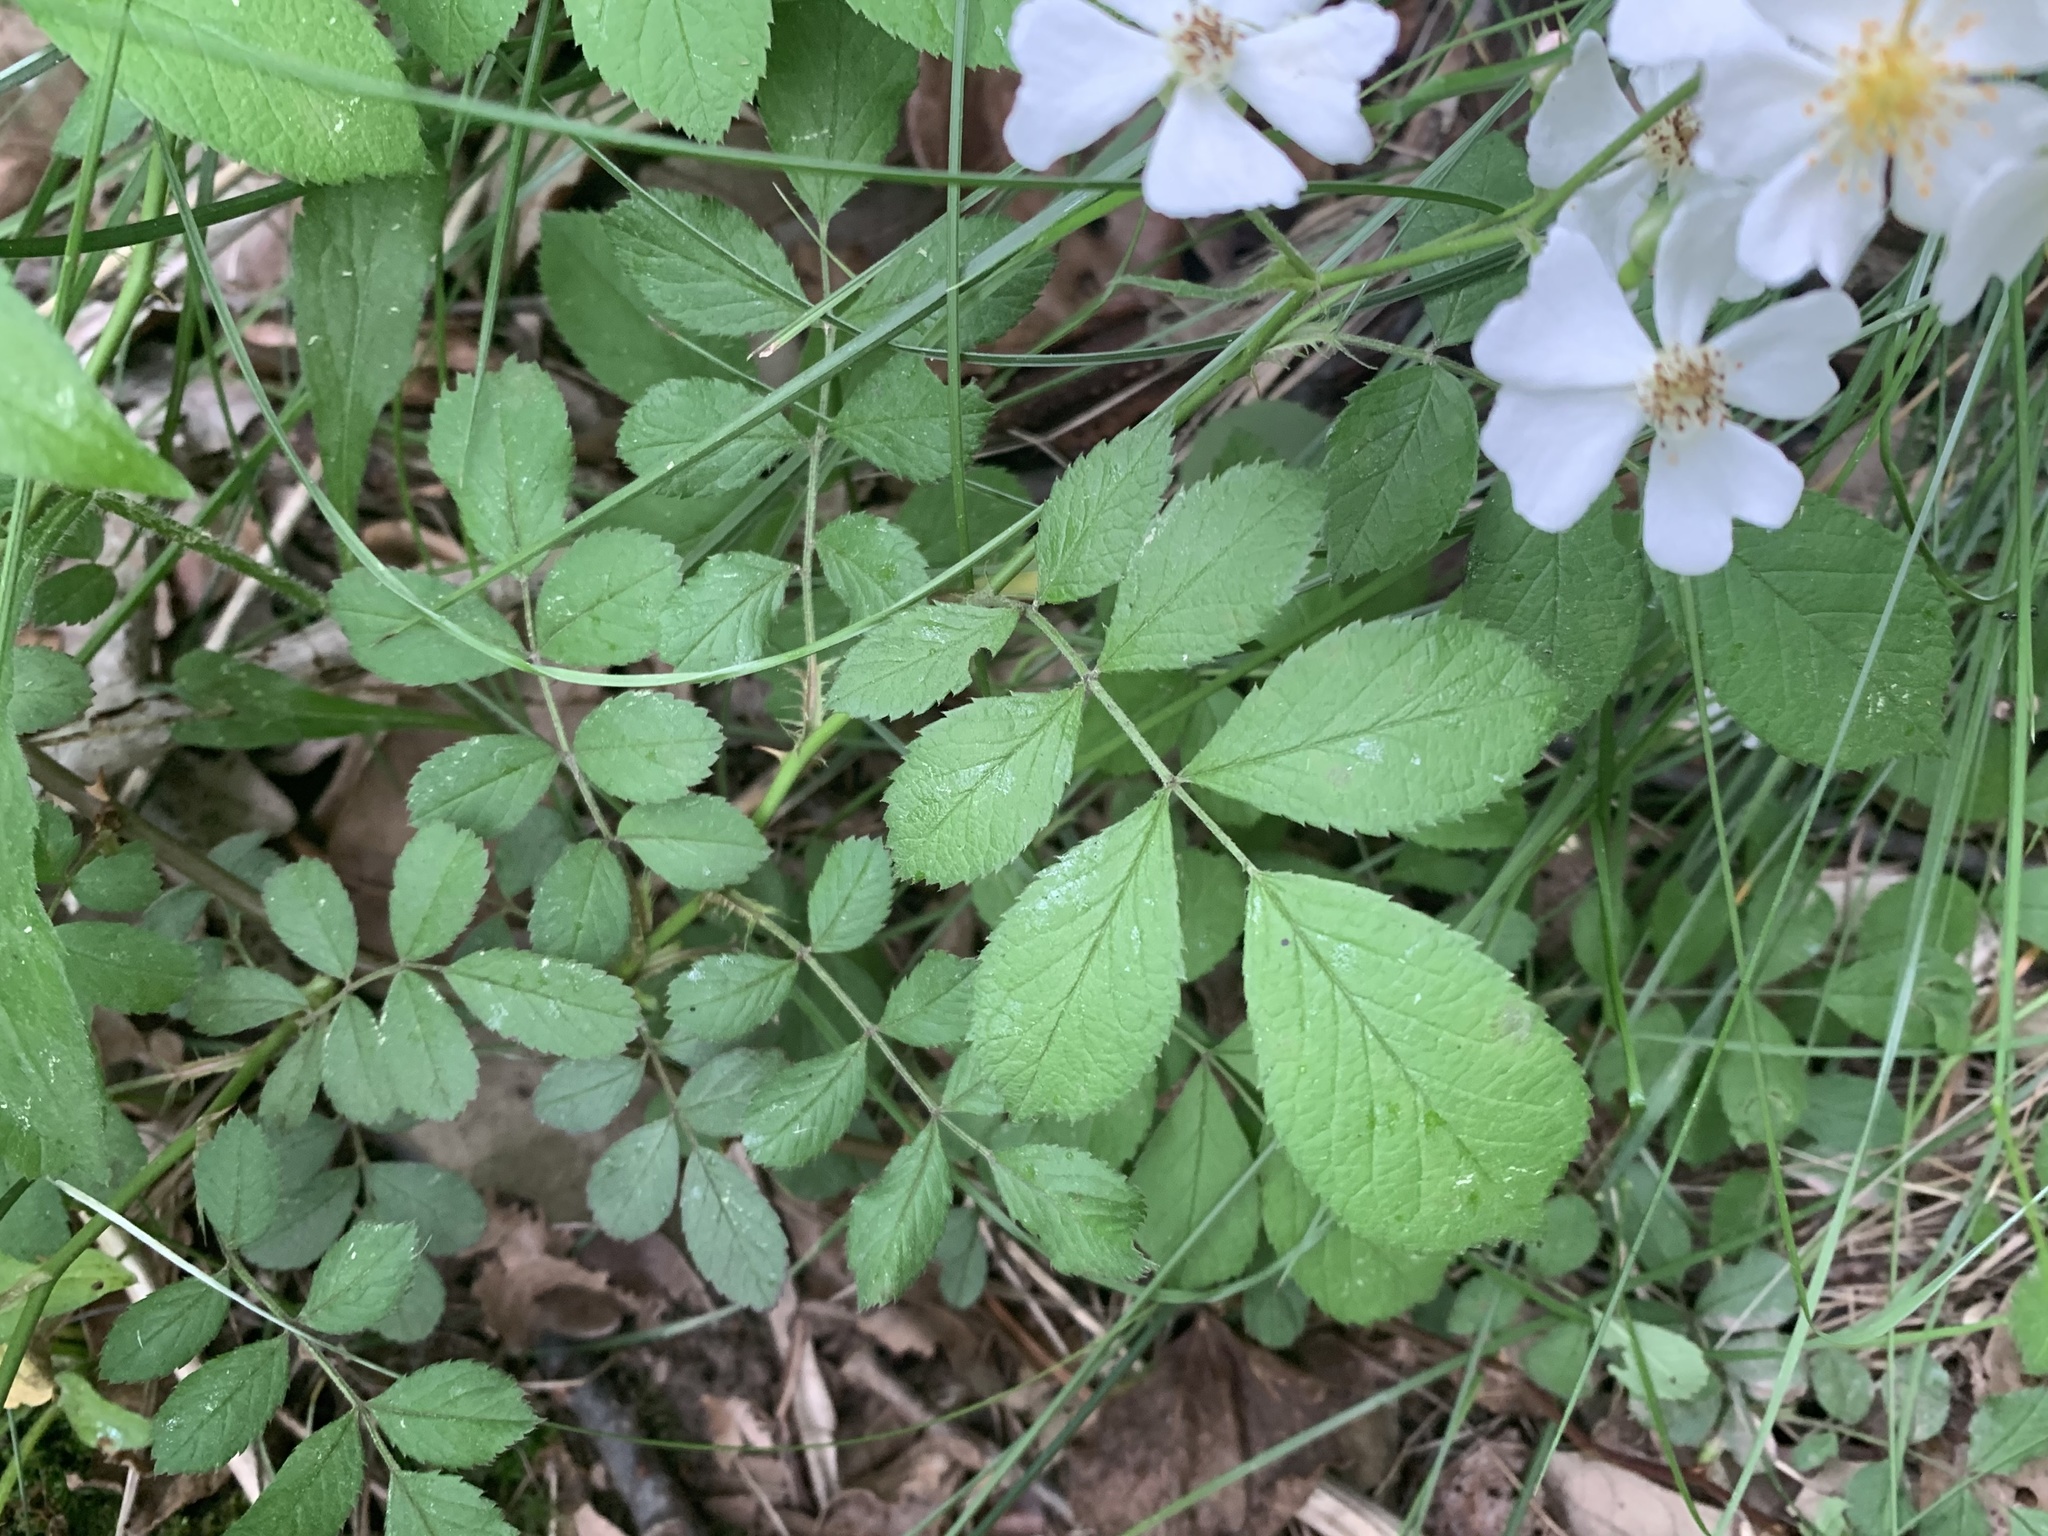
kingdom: Plantae
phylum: Tracheophyta
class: Magnoliopsida
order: Rosales
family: Rosaceae
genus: Rosa
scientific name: Rosa multiflora
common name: Multiflora rose
